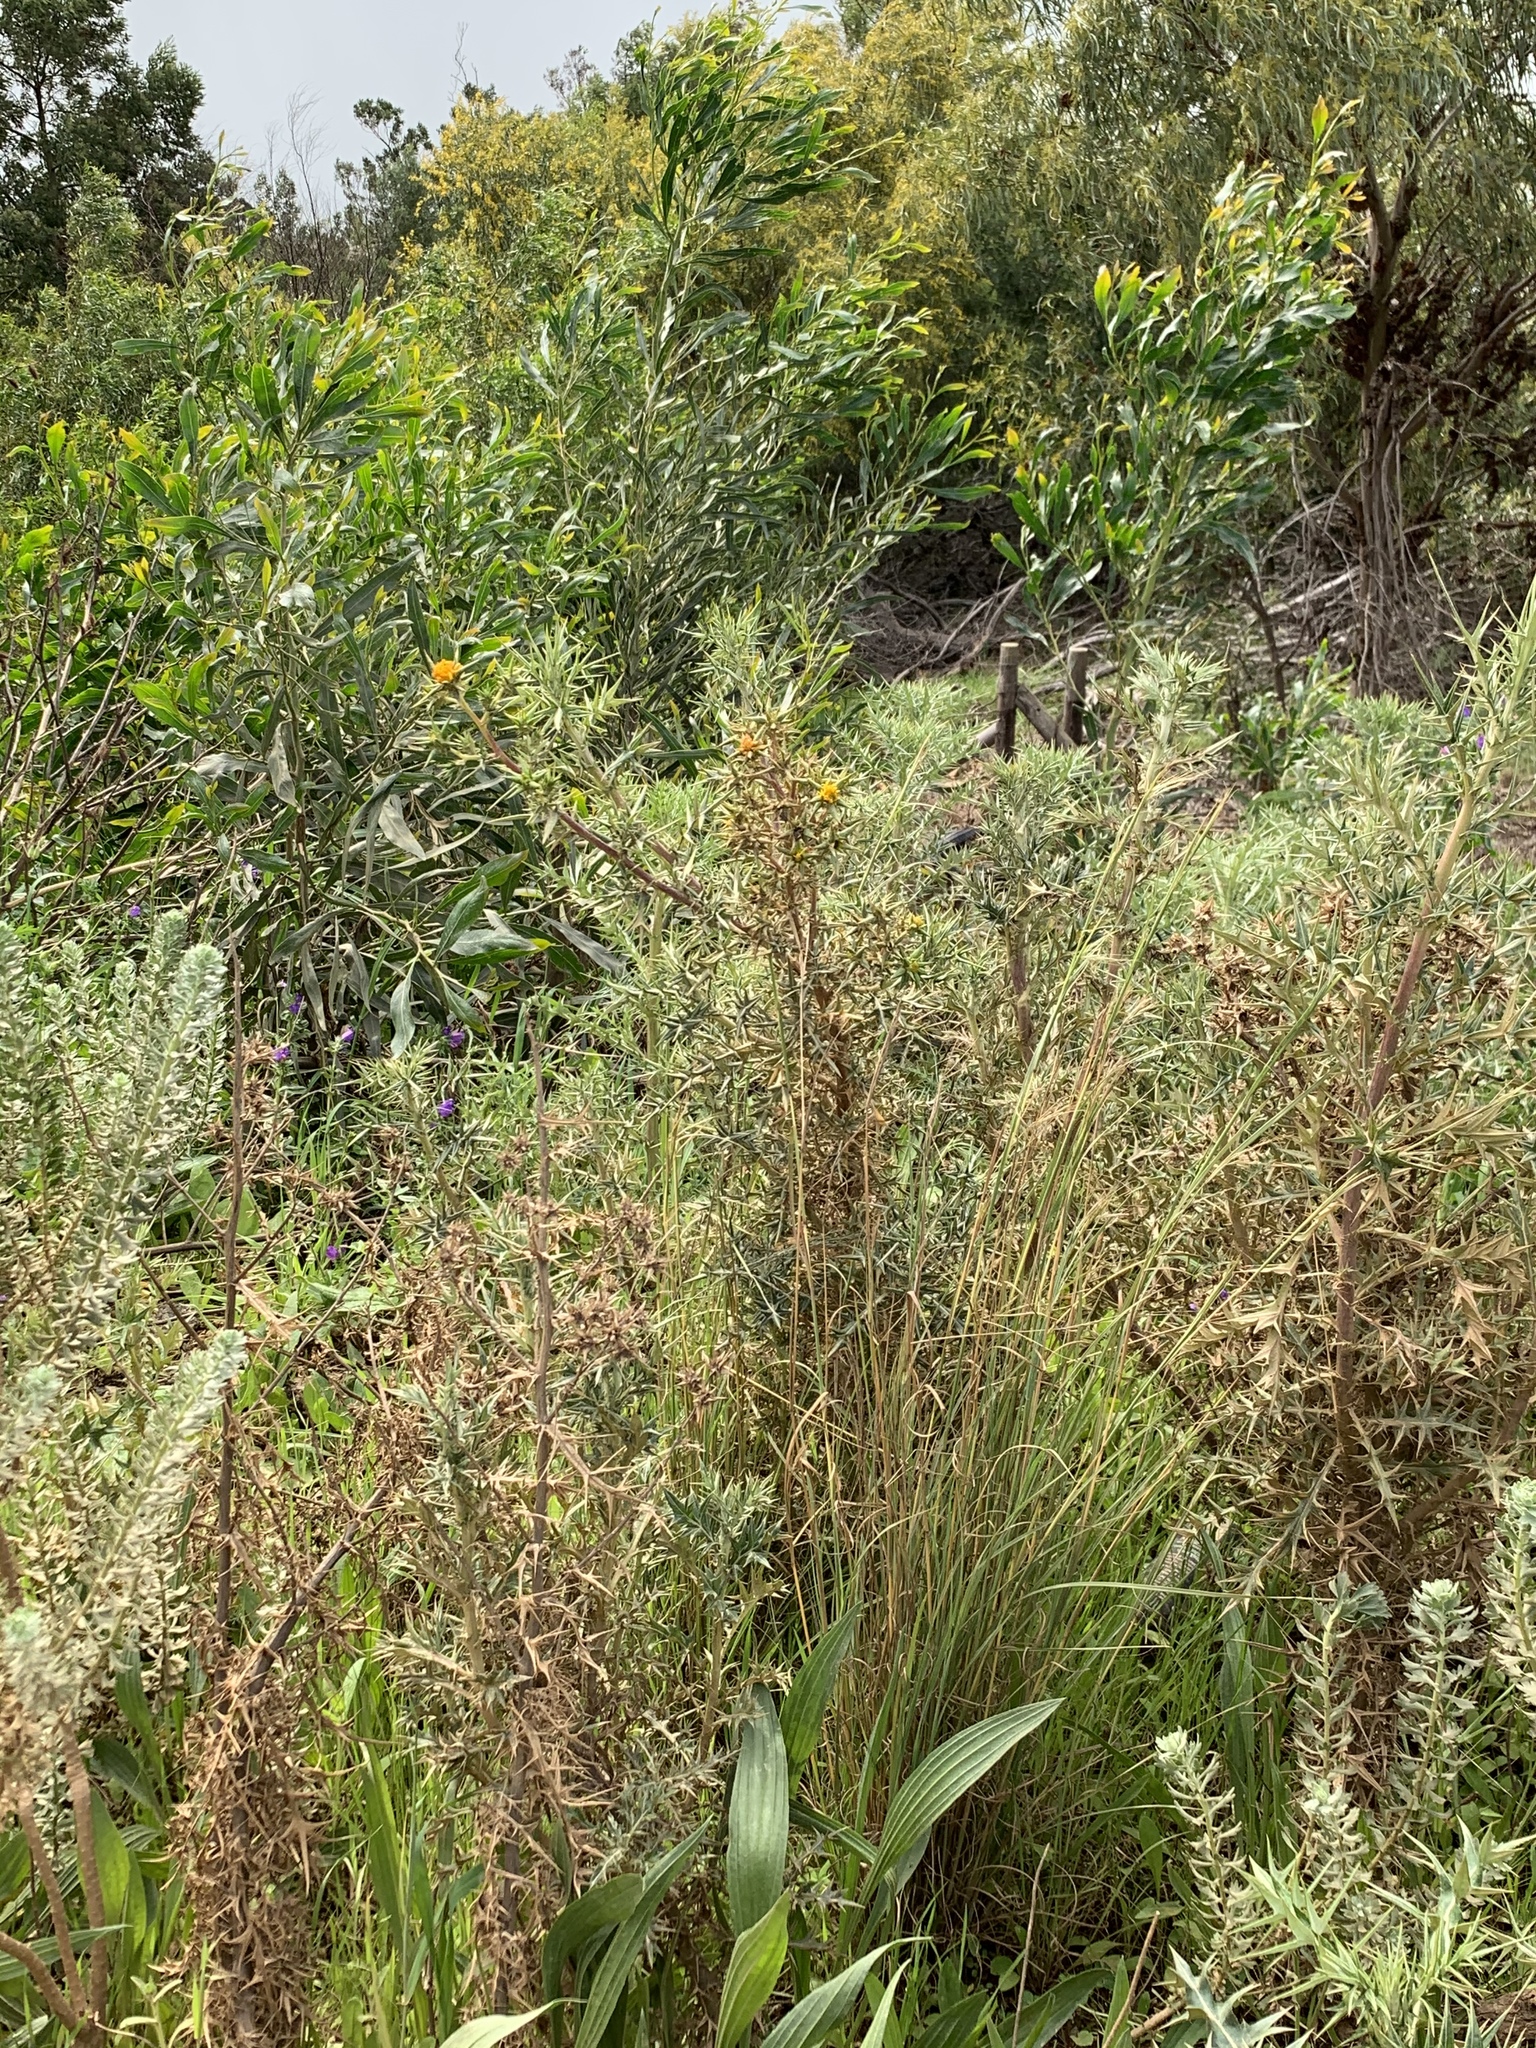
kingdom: Plantae
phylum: Tracheophyta
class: Magnoliopsida
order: Asterales
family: Asteraceae
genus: Berkheya
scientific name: Berkheya rigida
